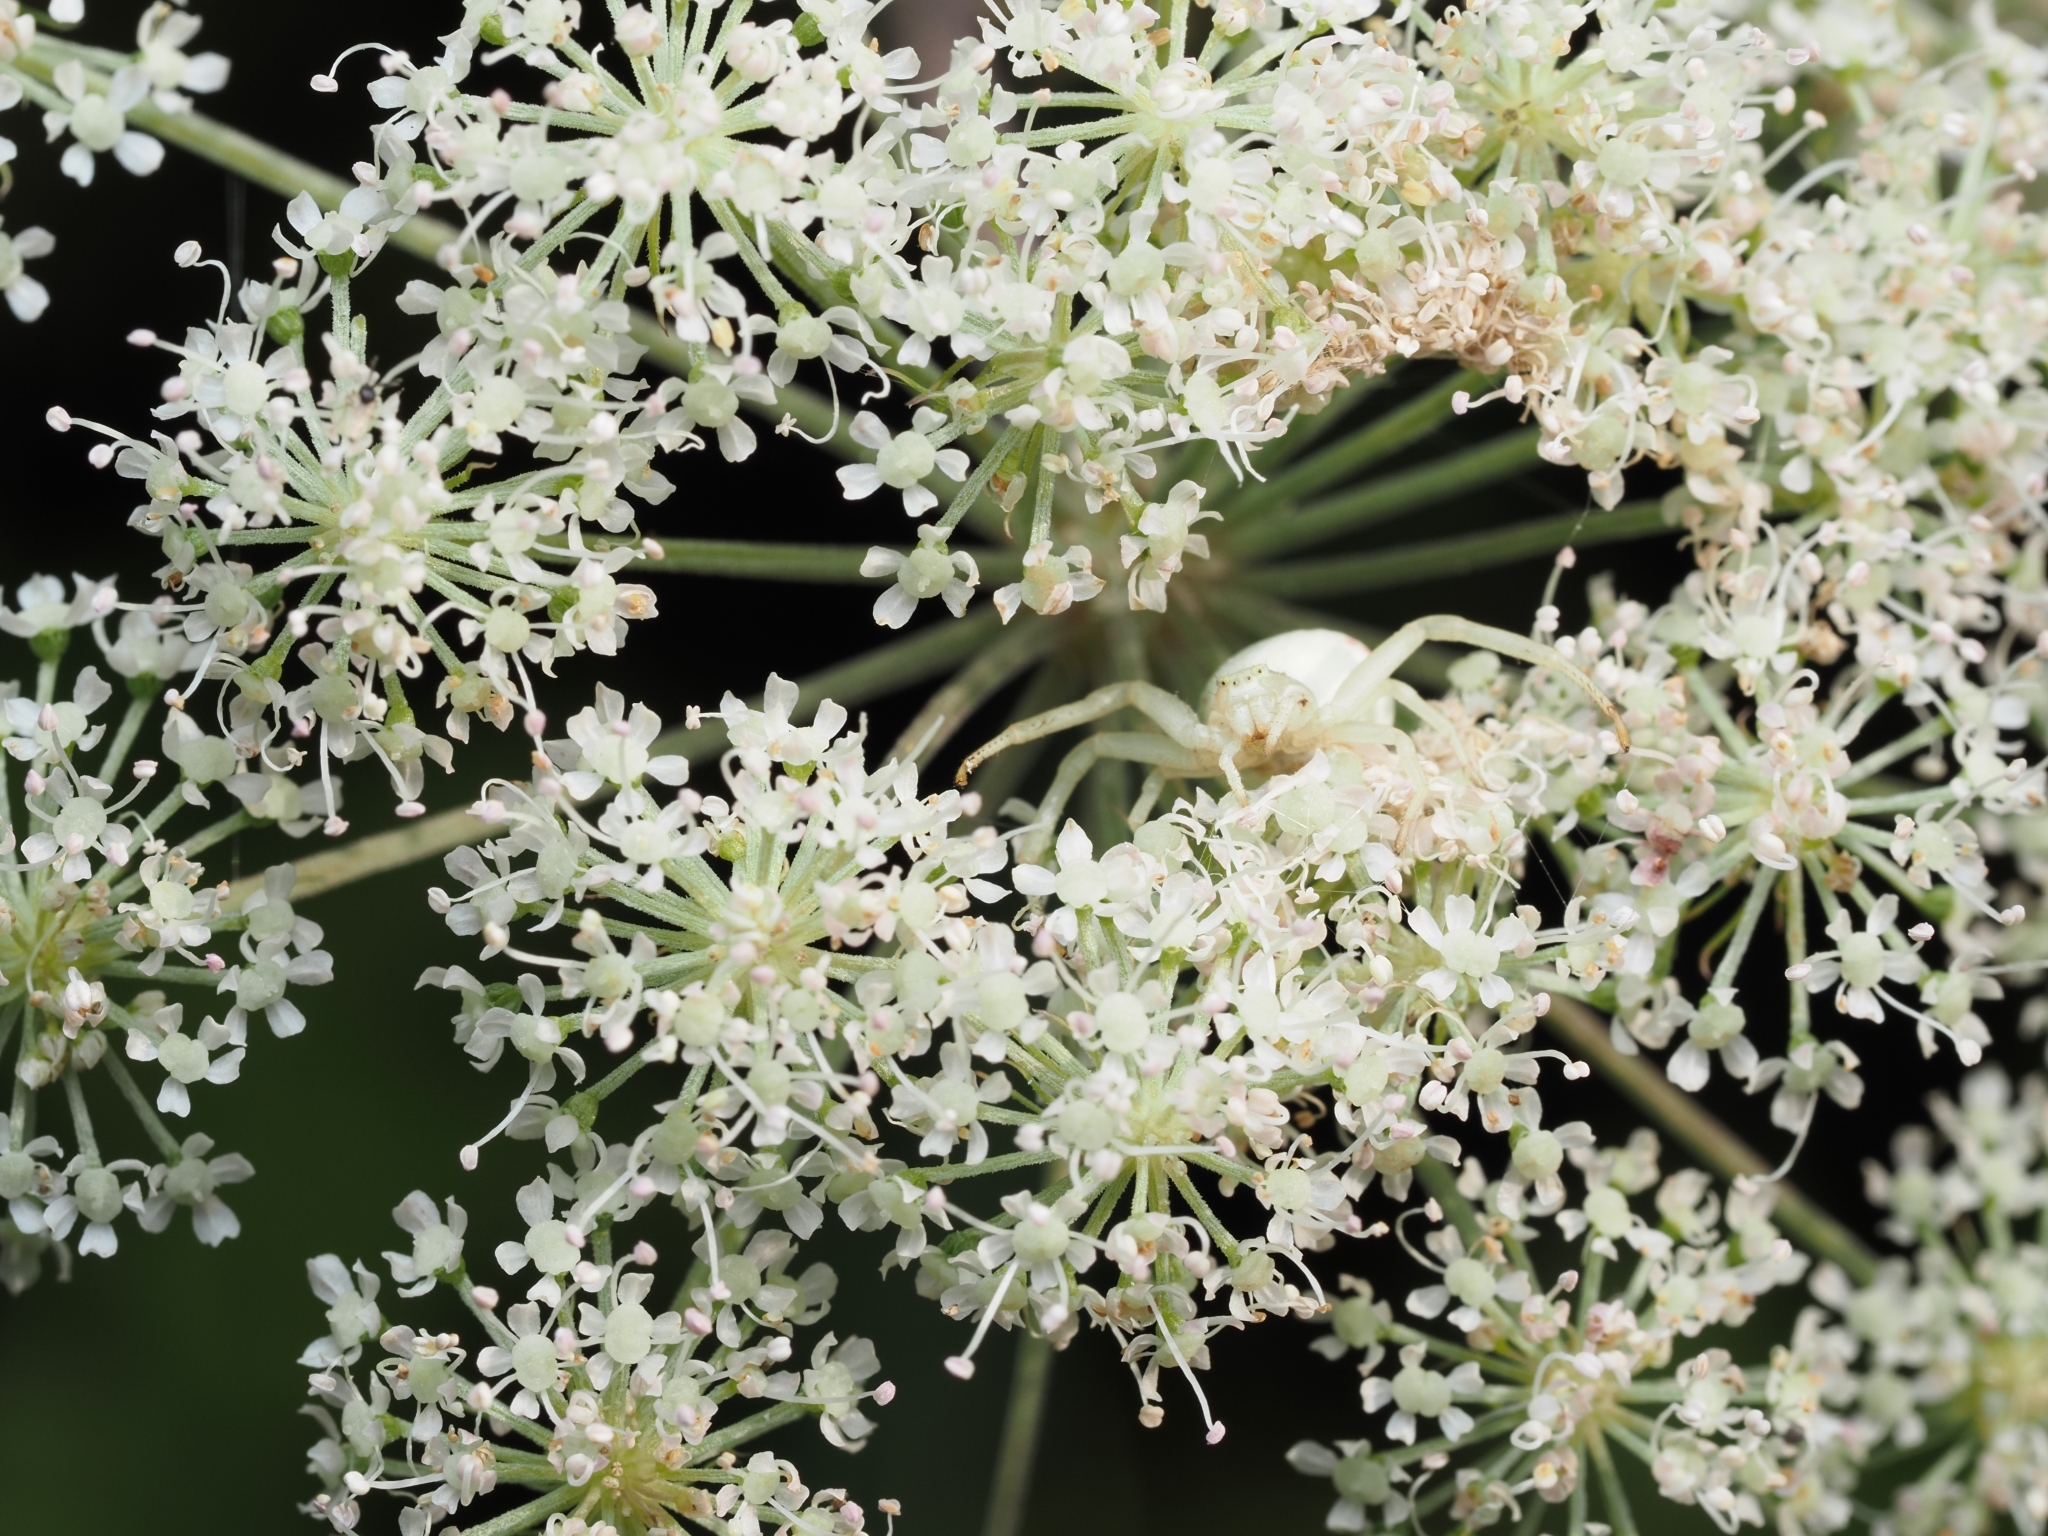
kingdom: Animalia
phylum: Arthropoda
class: Arachnida
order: Araneae
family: Thomisidae
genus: Misumena
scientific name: Misumena vatia
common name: Goldenrod crab spider
